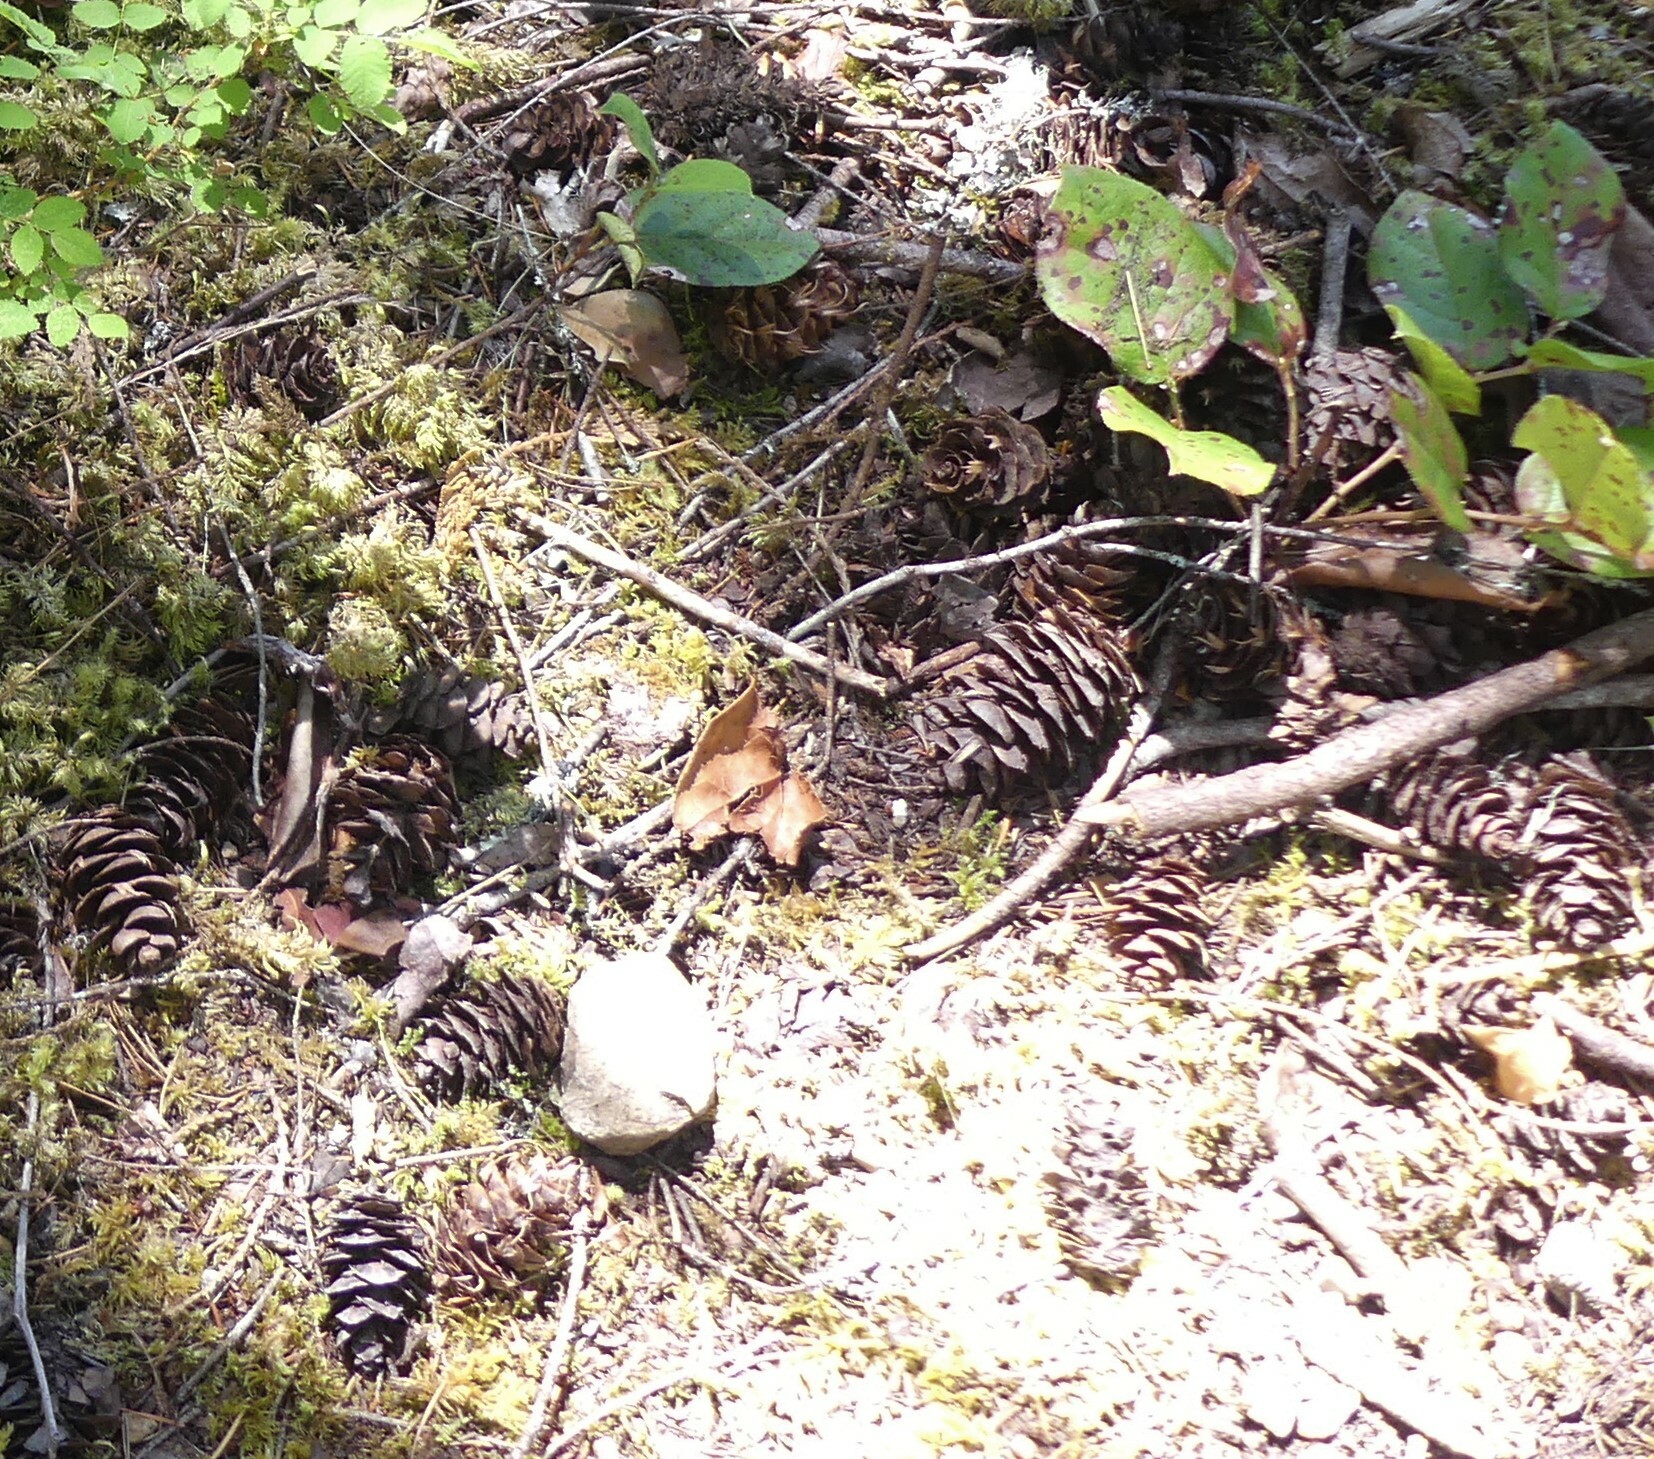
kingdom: Plantae
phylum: Tracheophyta
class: Pinopsida
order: Pinales
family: Pinaceae
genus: Pseudotsuga
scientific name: Pseudotsuga menziesii
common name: Douglas fir
